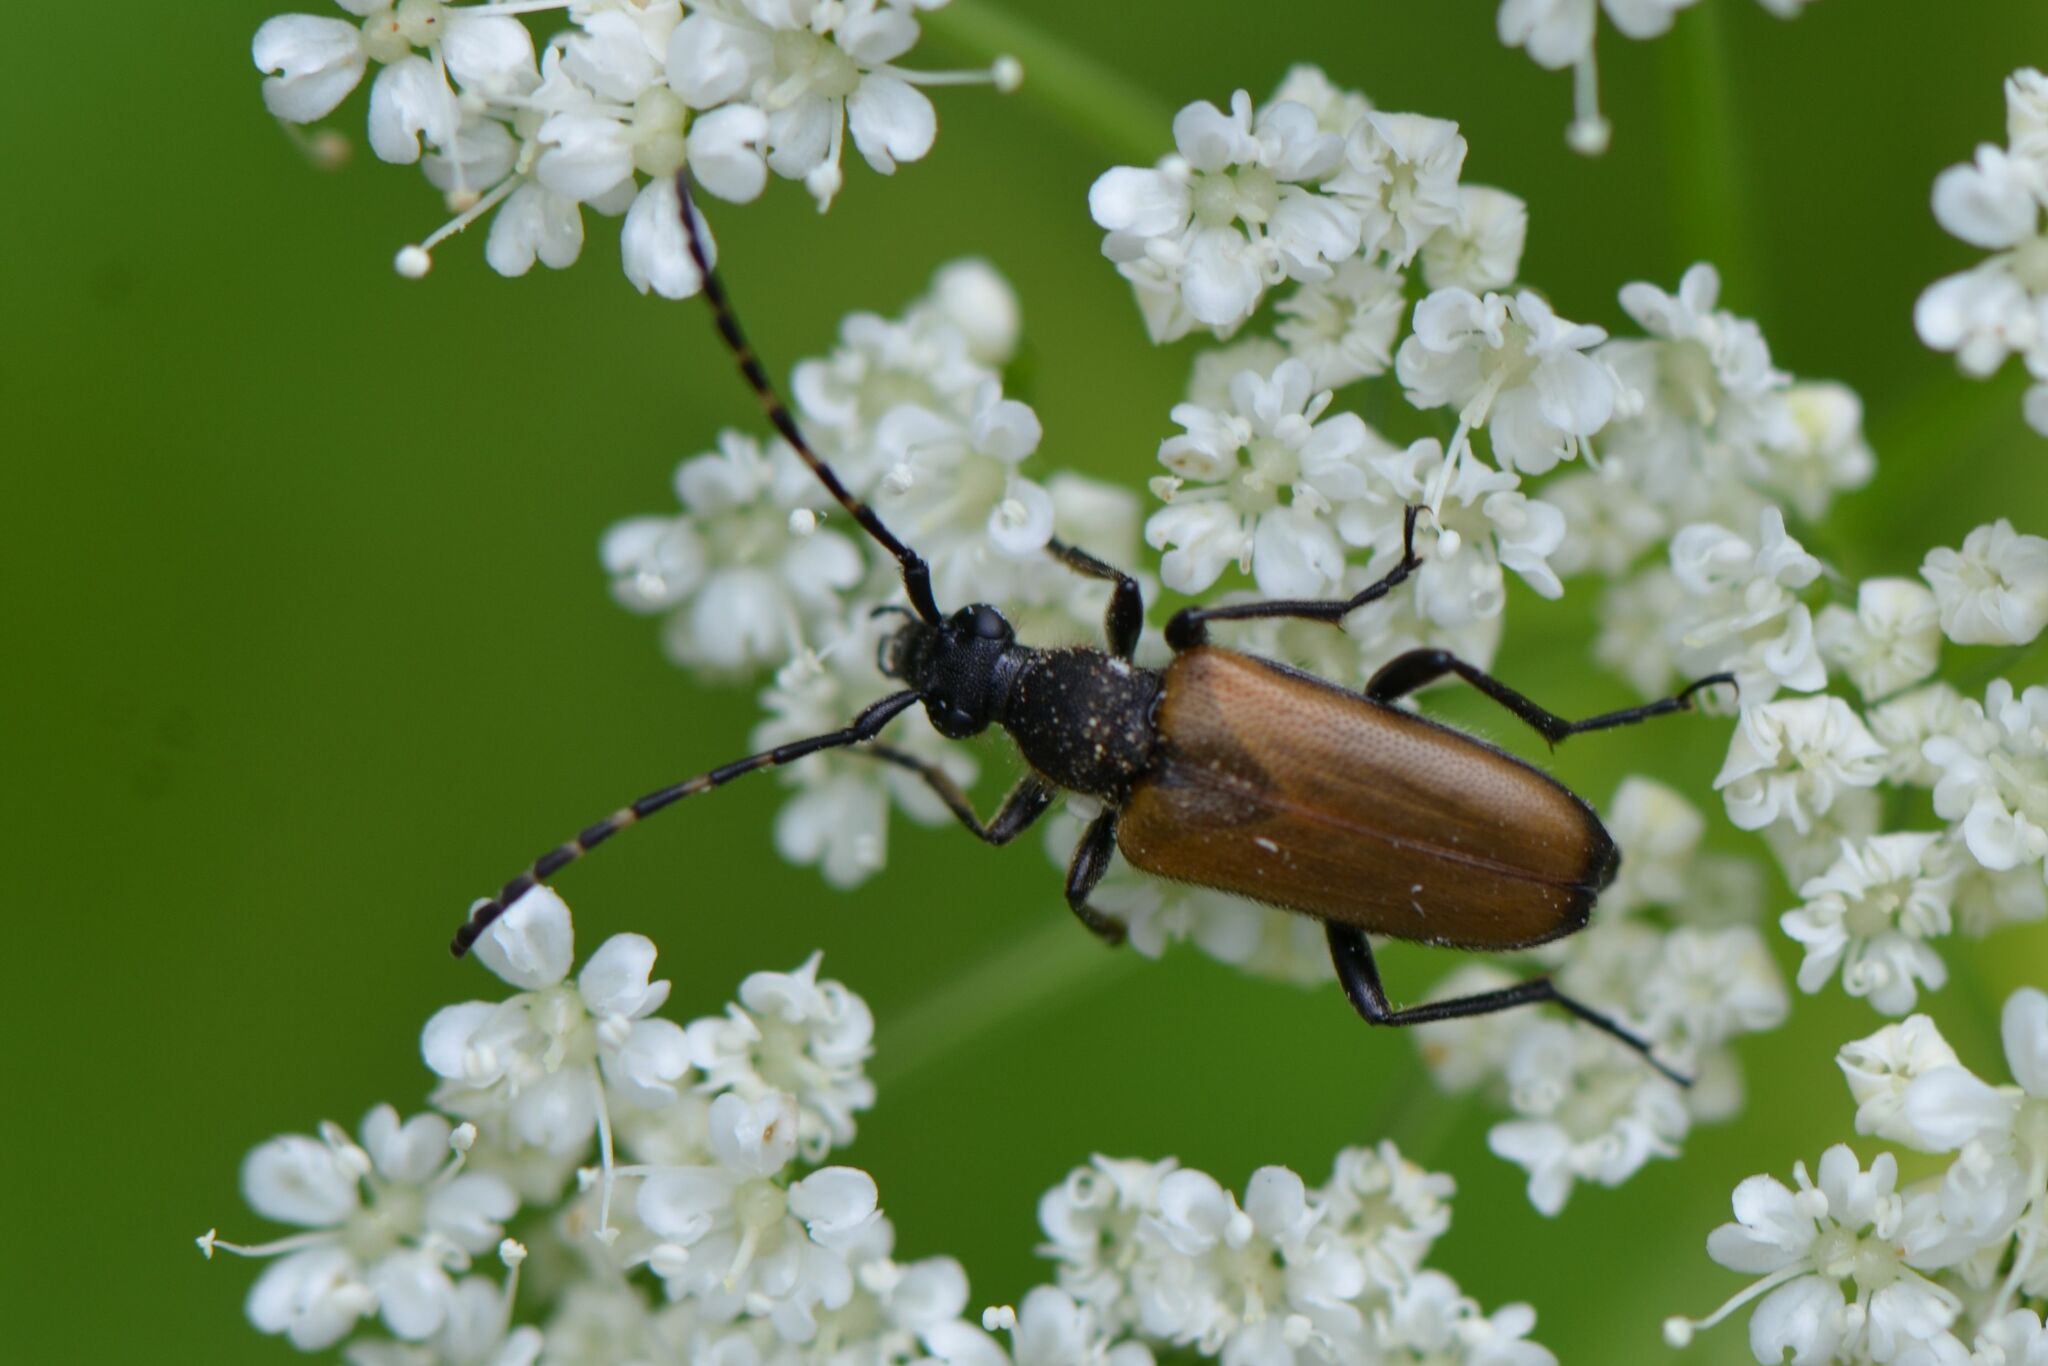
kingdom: Animalia
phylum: Arthropoda
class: Insecta
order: Coleoptera
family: Cerambycidae
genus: Paracorymbia
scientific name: Paracorymbia maculicornis
